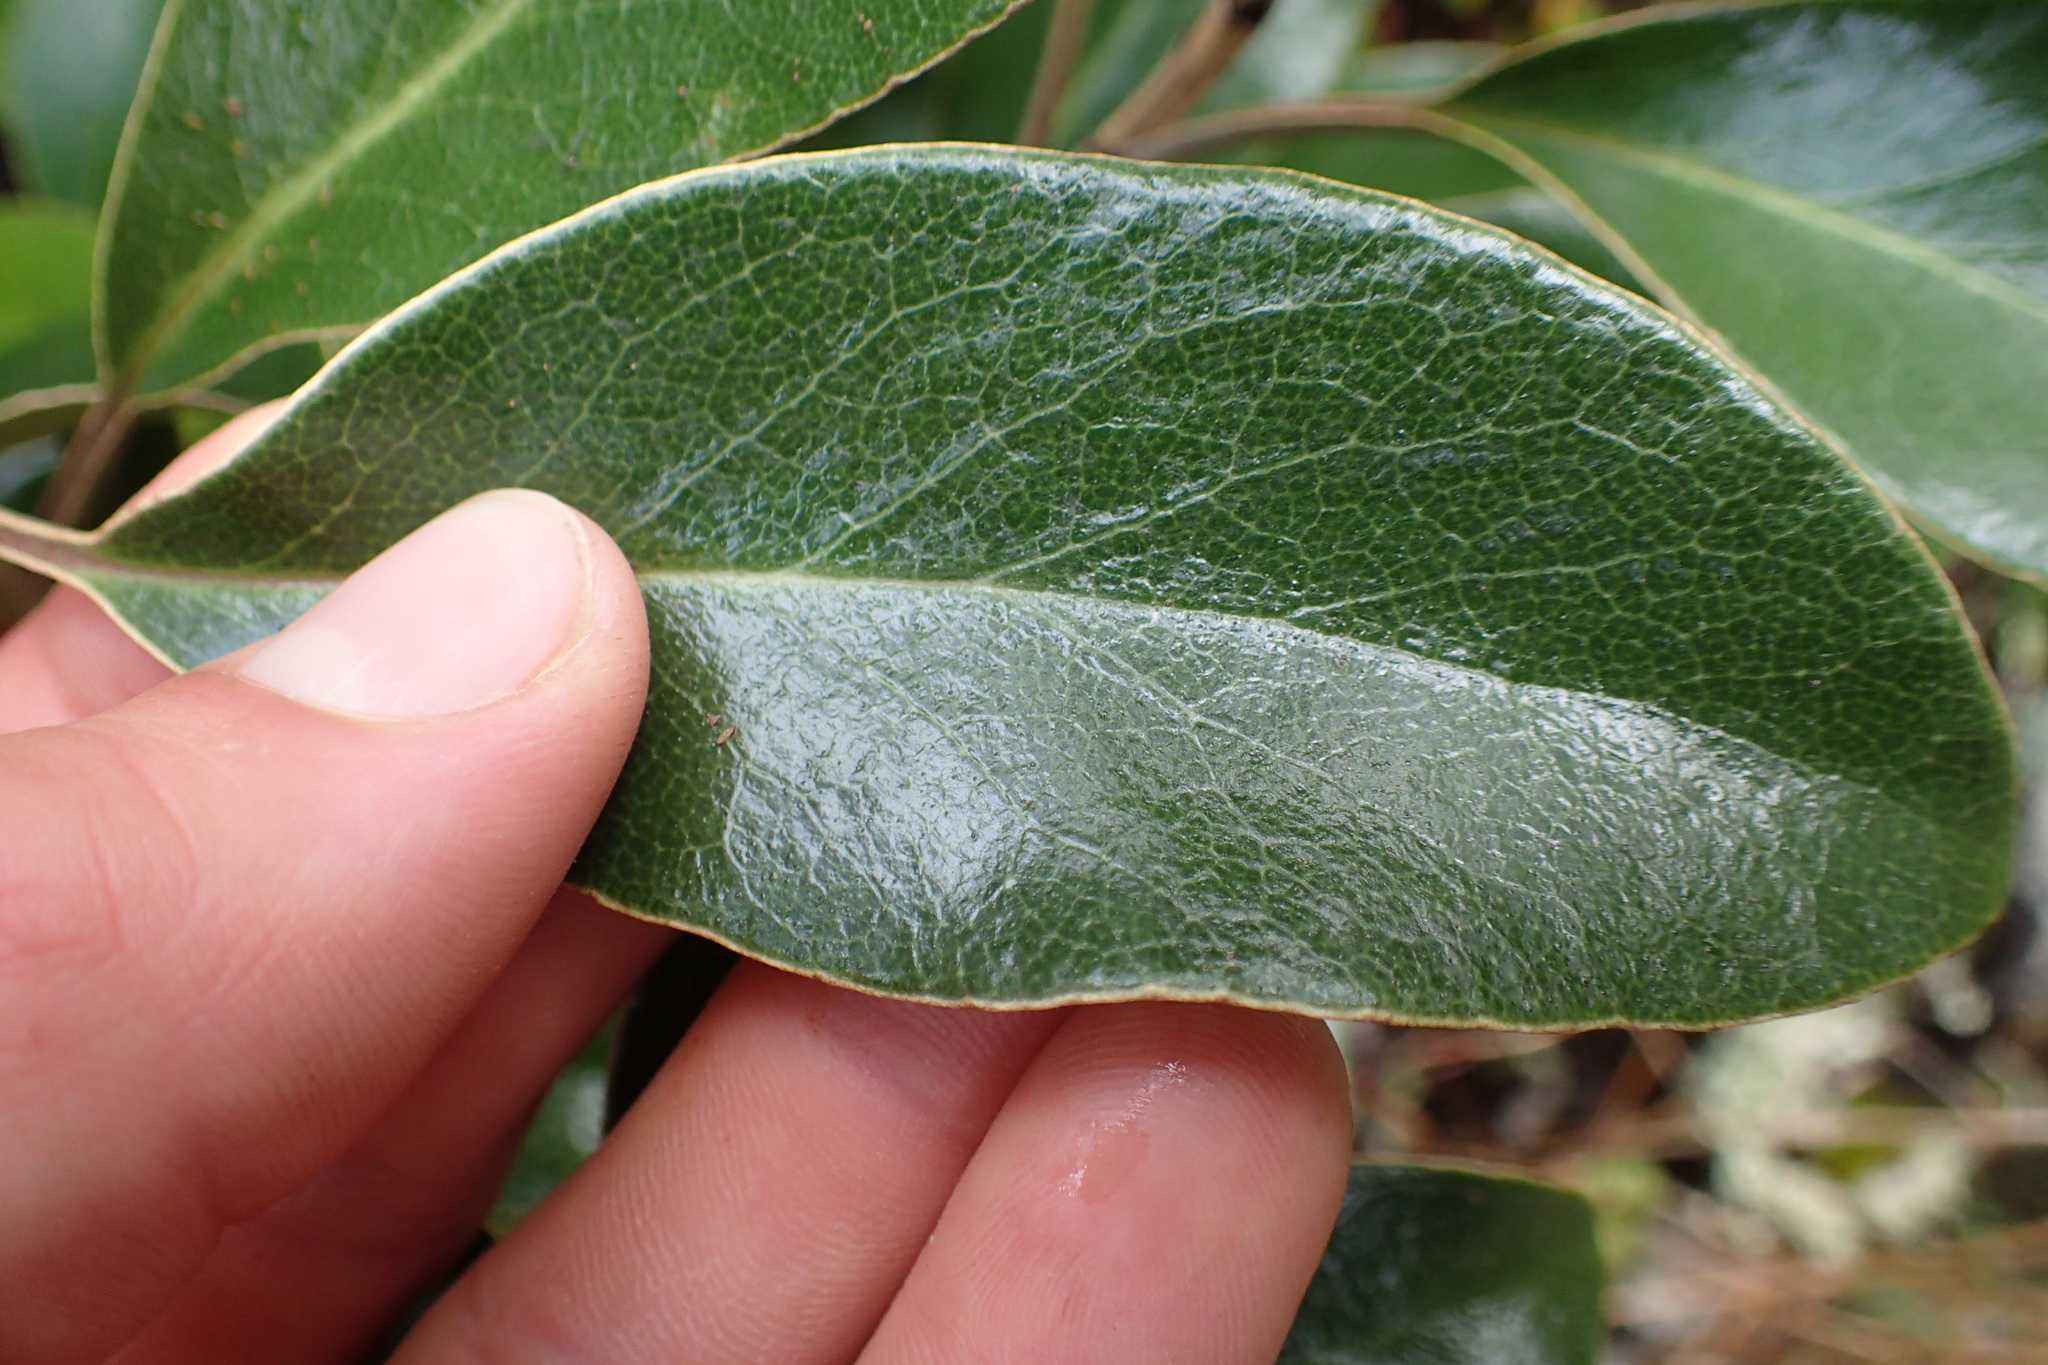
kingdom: Plantae
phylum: Tracheophyta
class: Magnoliopsida
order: Asterales
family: Asteraceae
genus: Brachyglottis
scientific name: Brachyglottis elaeagnifolia
